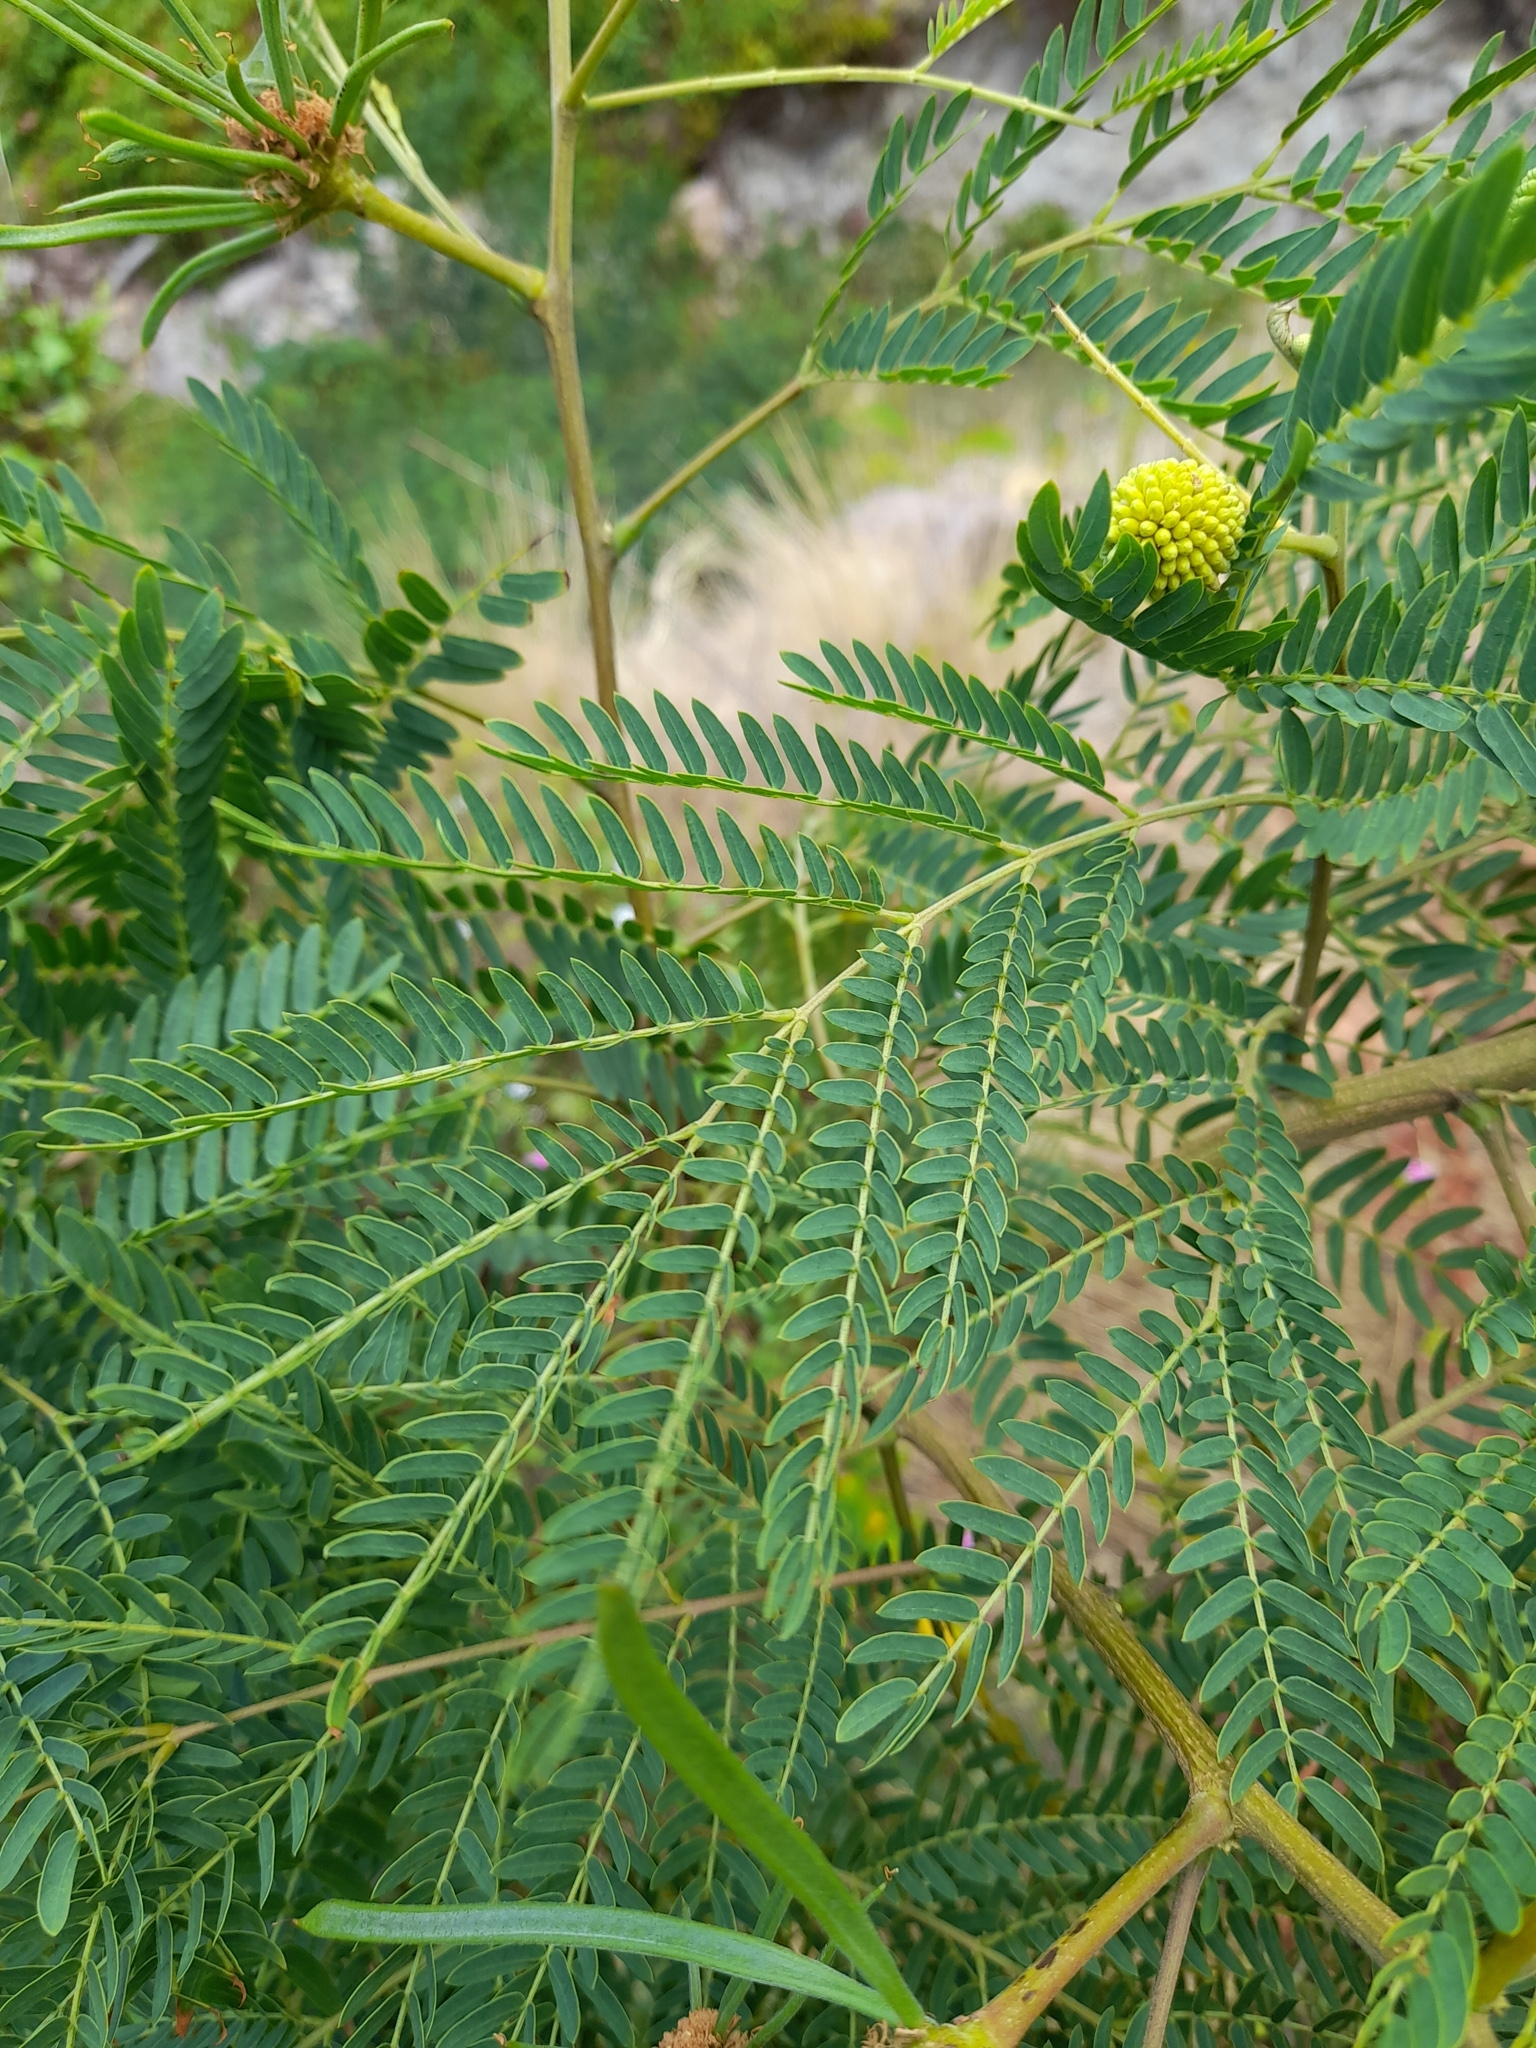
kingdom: Plantae
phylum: Tracheophyta
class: Magnoliopsida
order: Fabales
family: Fabaceae
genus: Leucaena
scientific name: Leucaena leucocephala
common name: White leadtree
